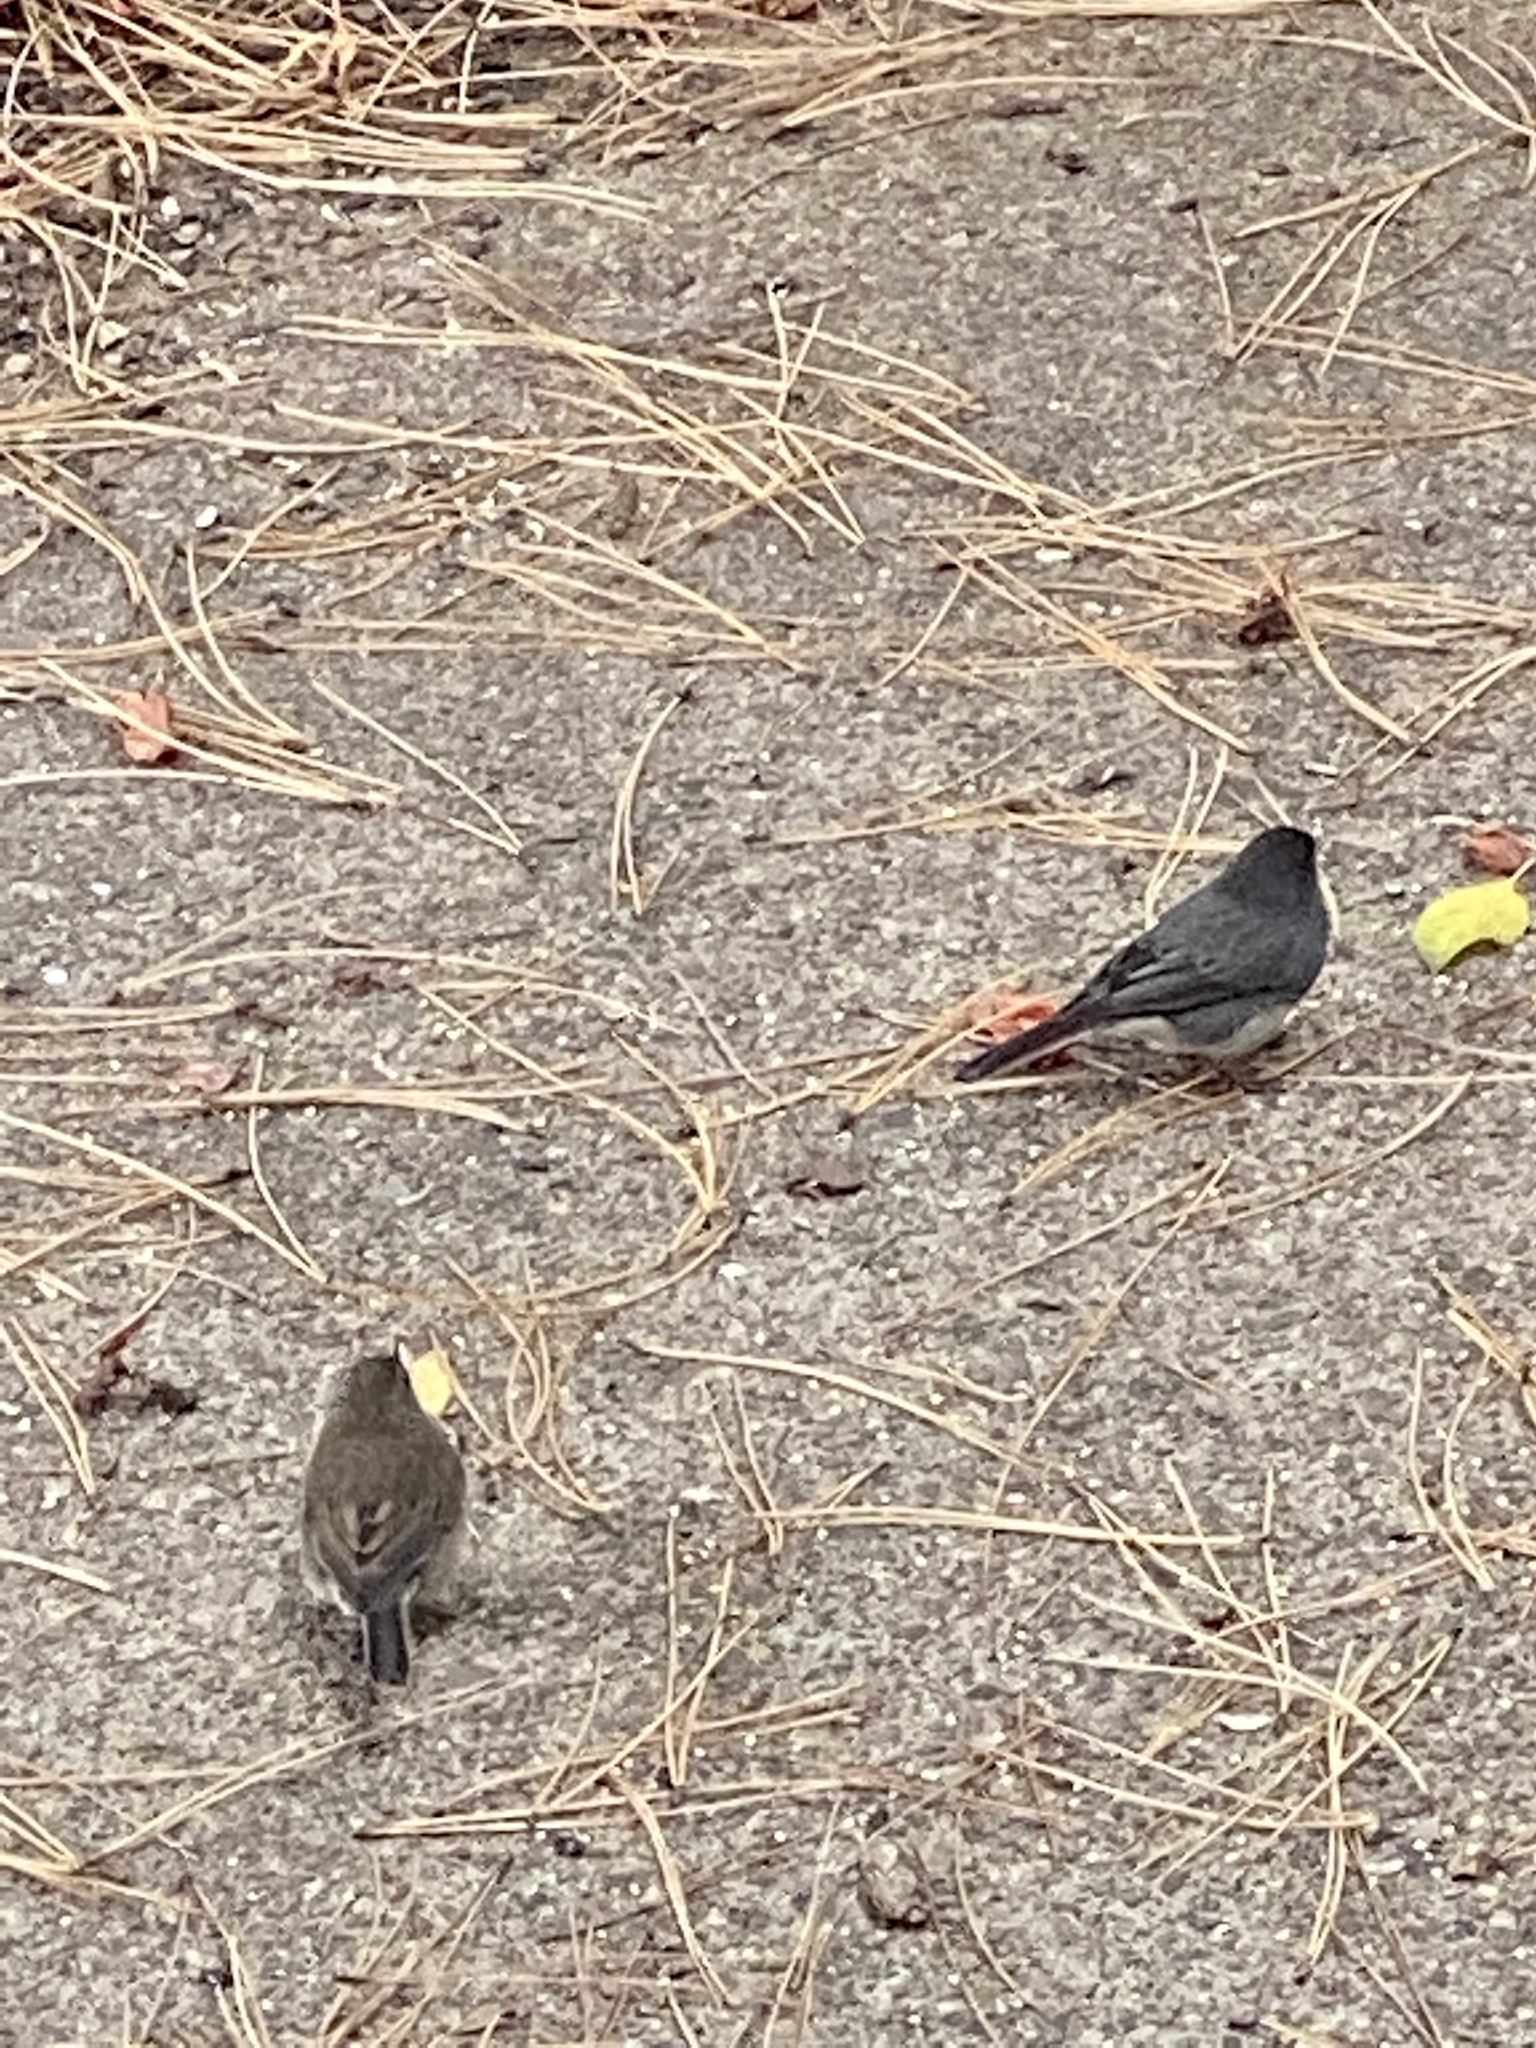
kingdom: Animalia
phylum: Chordata
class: Aves
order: Passeriformes
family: Passerellidae
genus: Junco
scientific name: Junco hyemalis
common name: Dark-eyed junco
